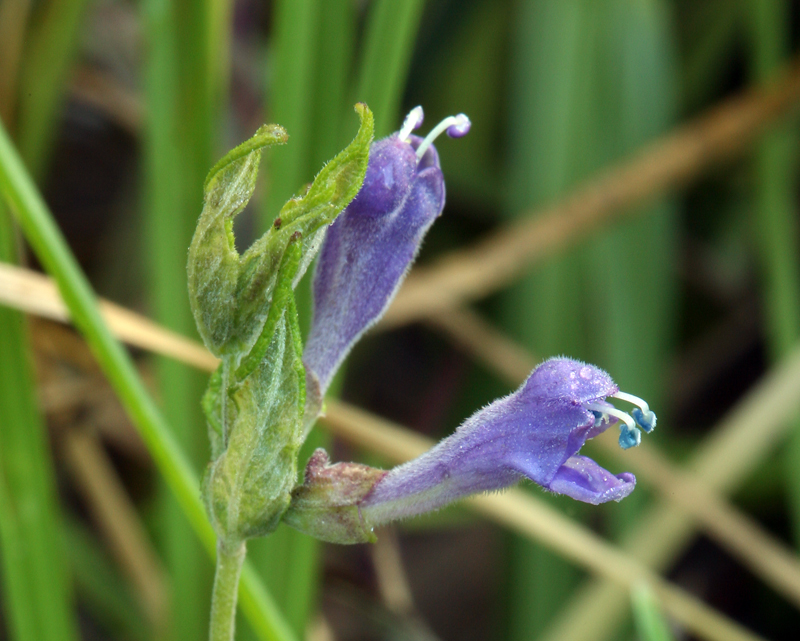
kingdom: Plantae
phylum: Tracheophyta
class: Magnoliopsida
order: Lamiales
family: Lamiaceae
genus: Scutellaria
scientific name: Scutellaria galericulata
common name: Skullcap
